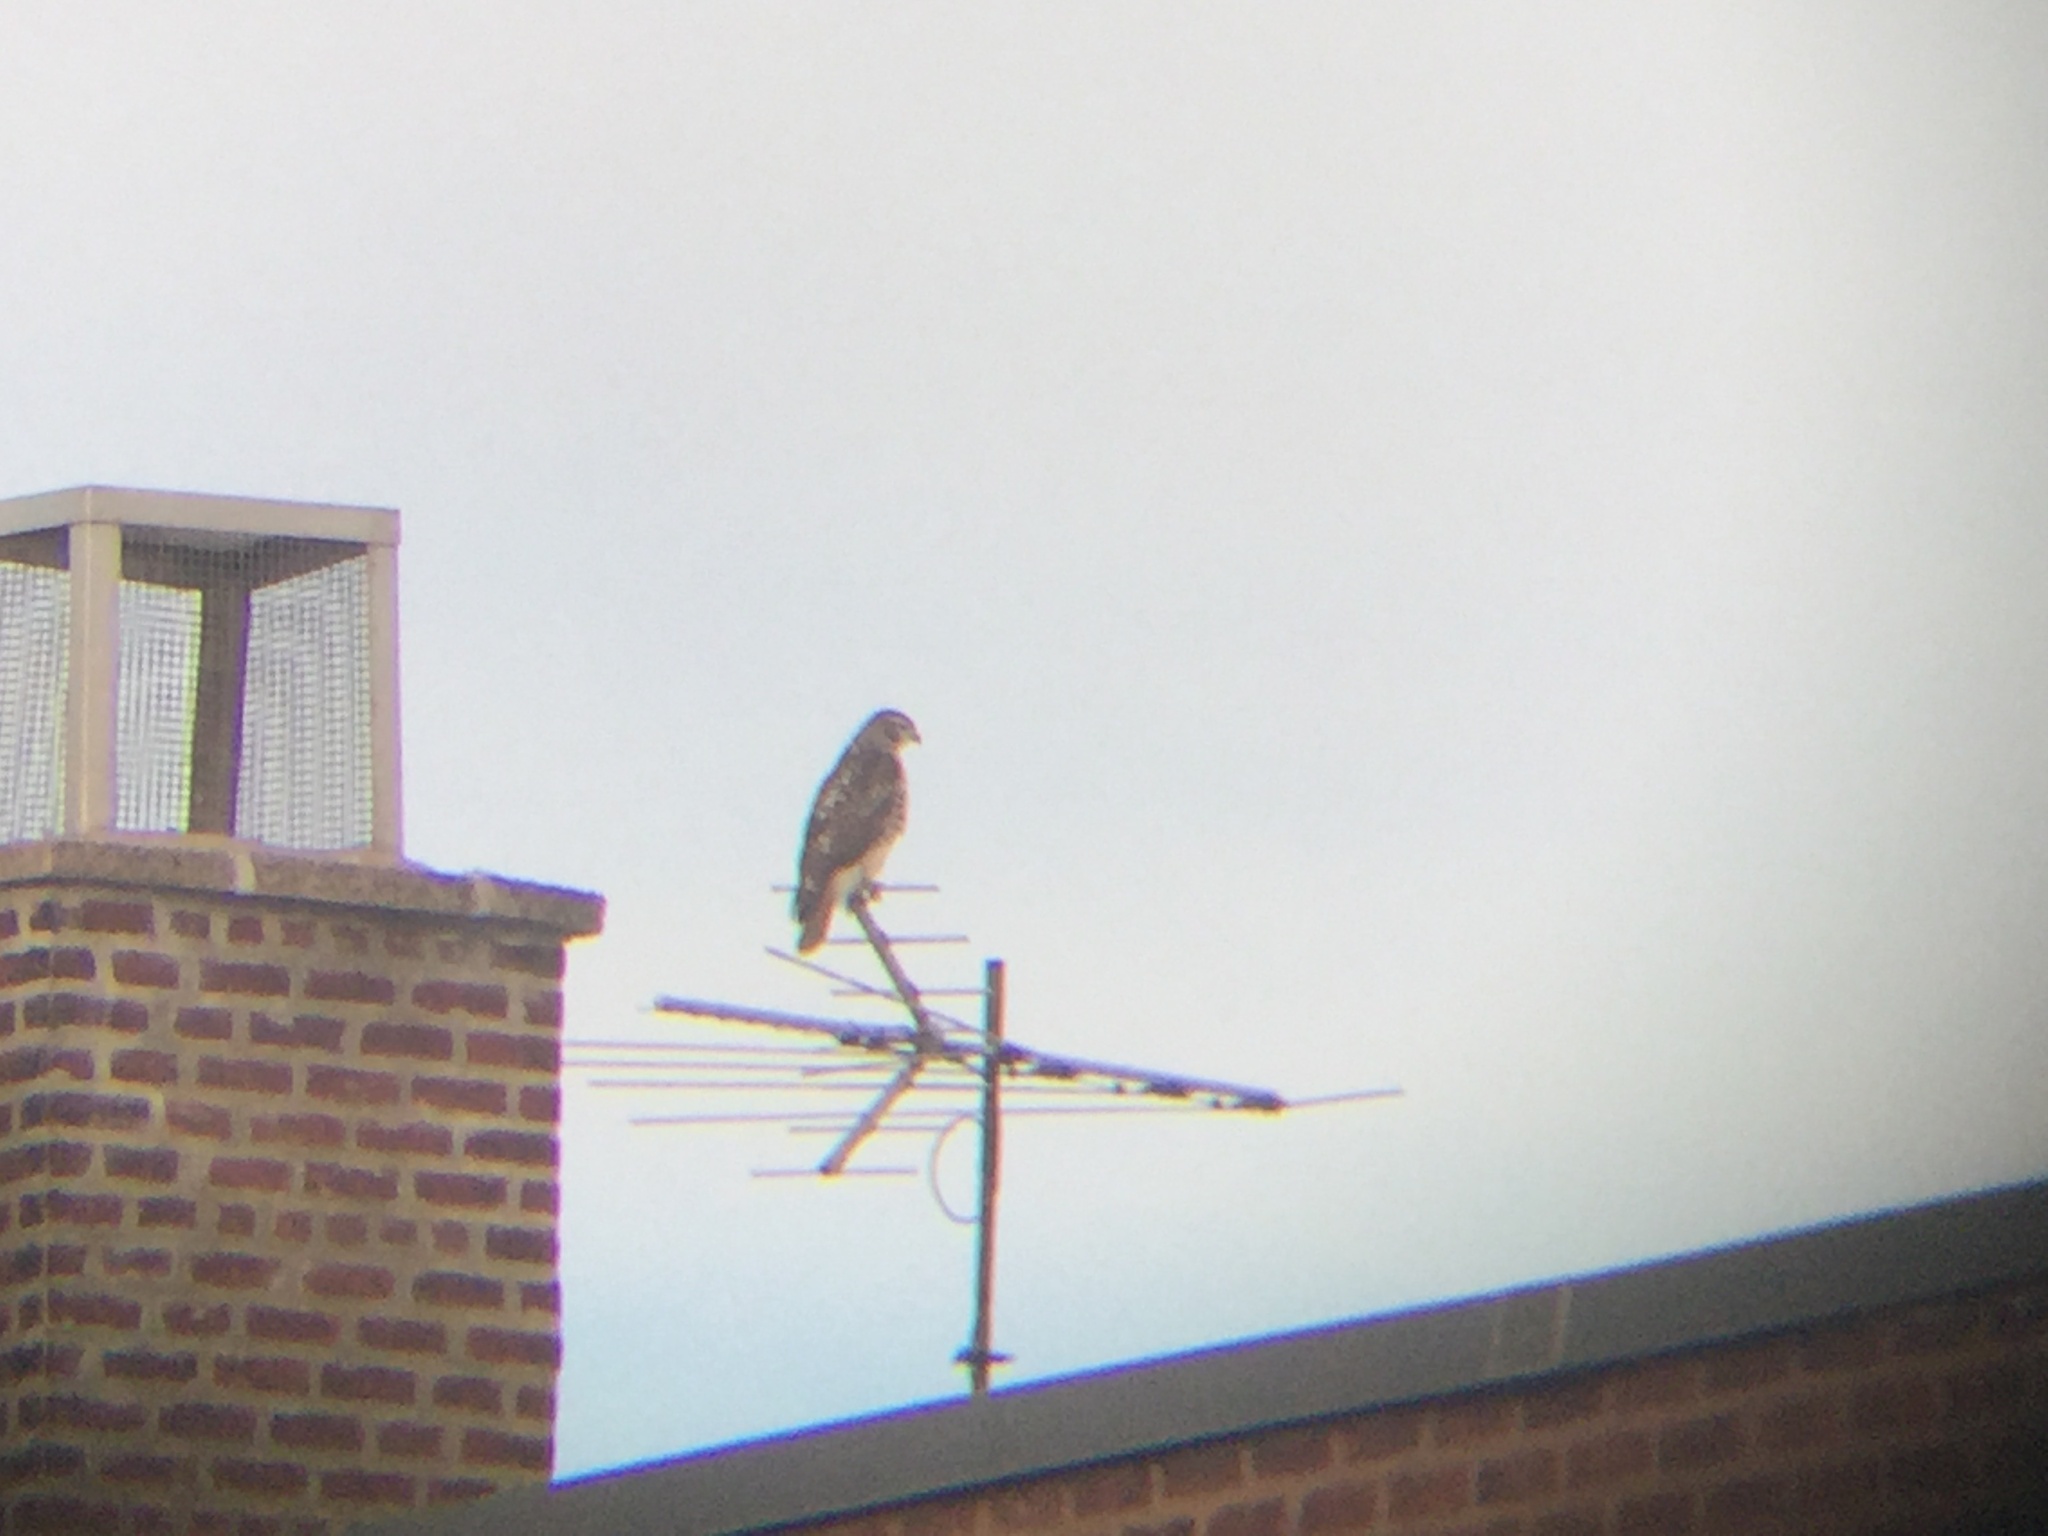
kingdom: Animalia
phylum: Chordata
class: Aves
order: Accipitriformes
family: Accipitridae
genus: Buteo
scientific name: Buteo jamaicensis
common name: Red-tailed hawk
